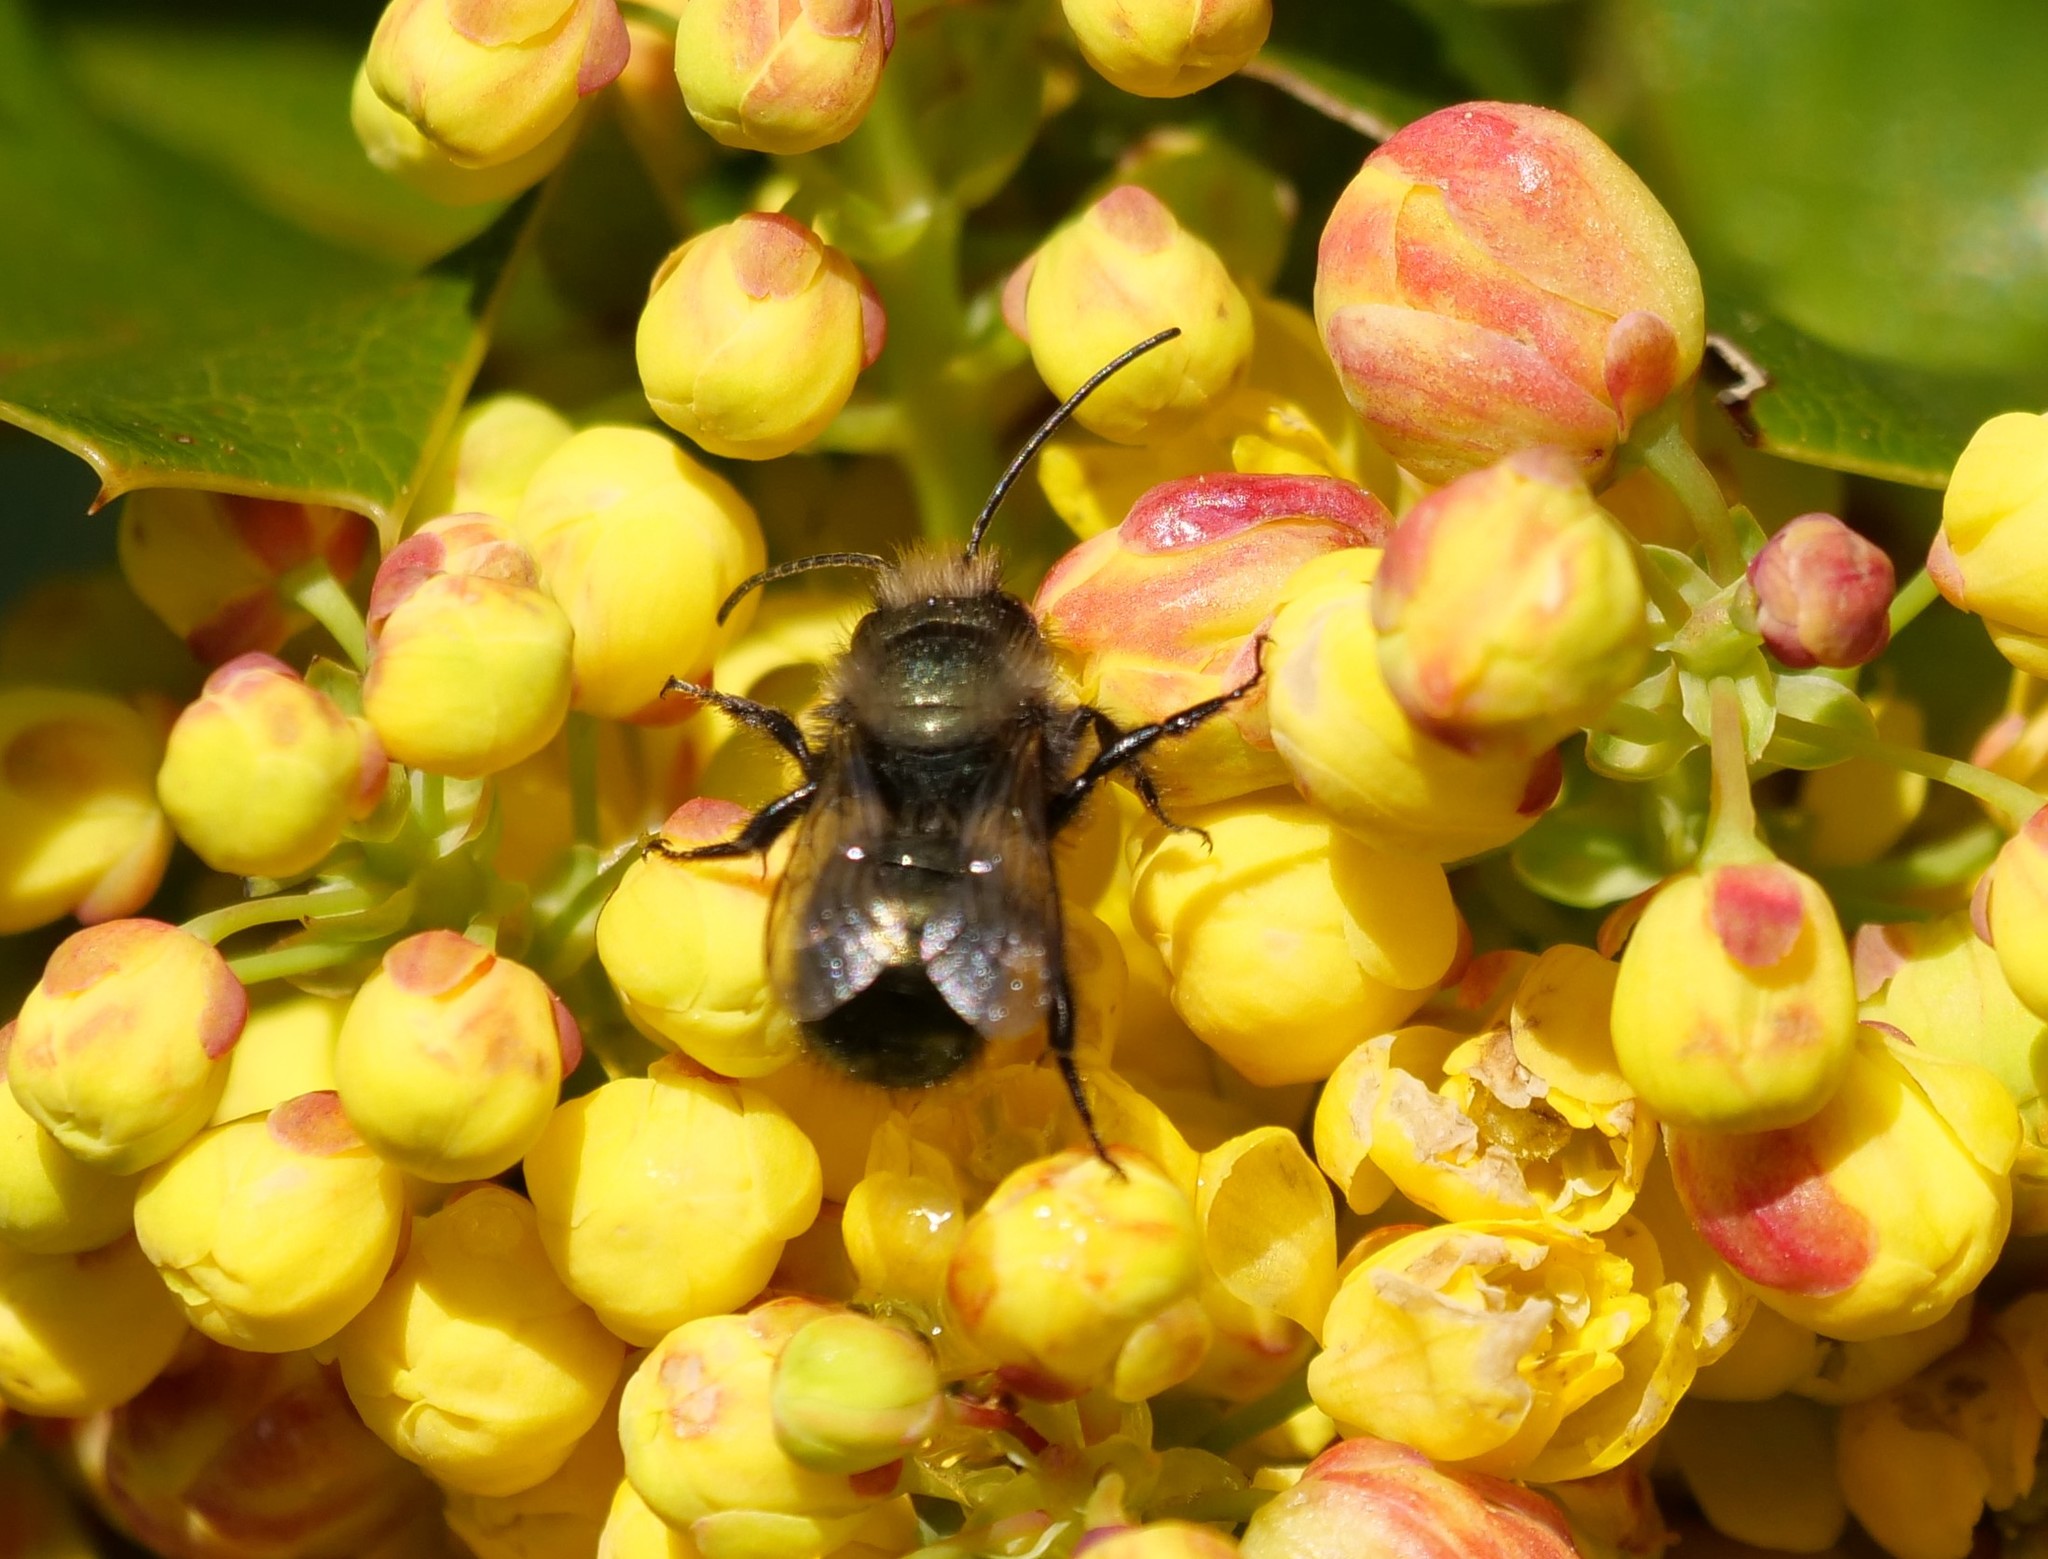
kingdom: Animalia
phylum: Arthropoda
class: Insecta
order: Hymenoptera
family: Megachilidae
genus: Osmia
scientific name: Osmia lignaria
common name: Blue orchard bee
